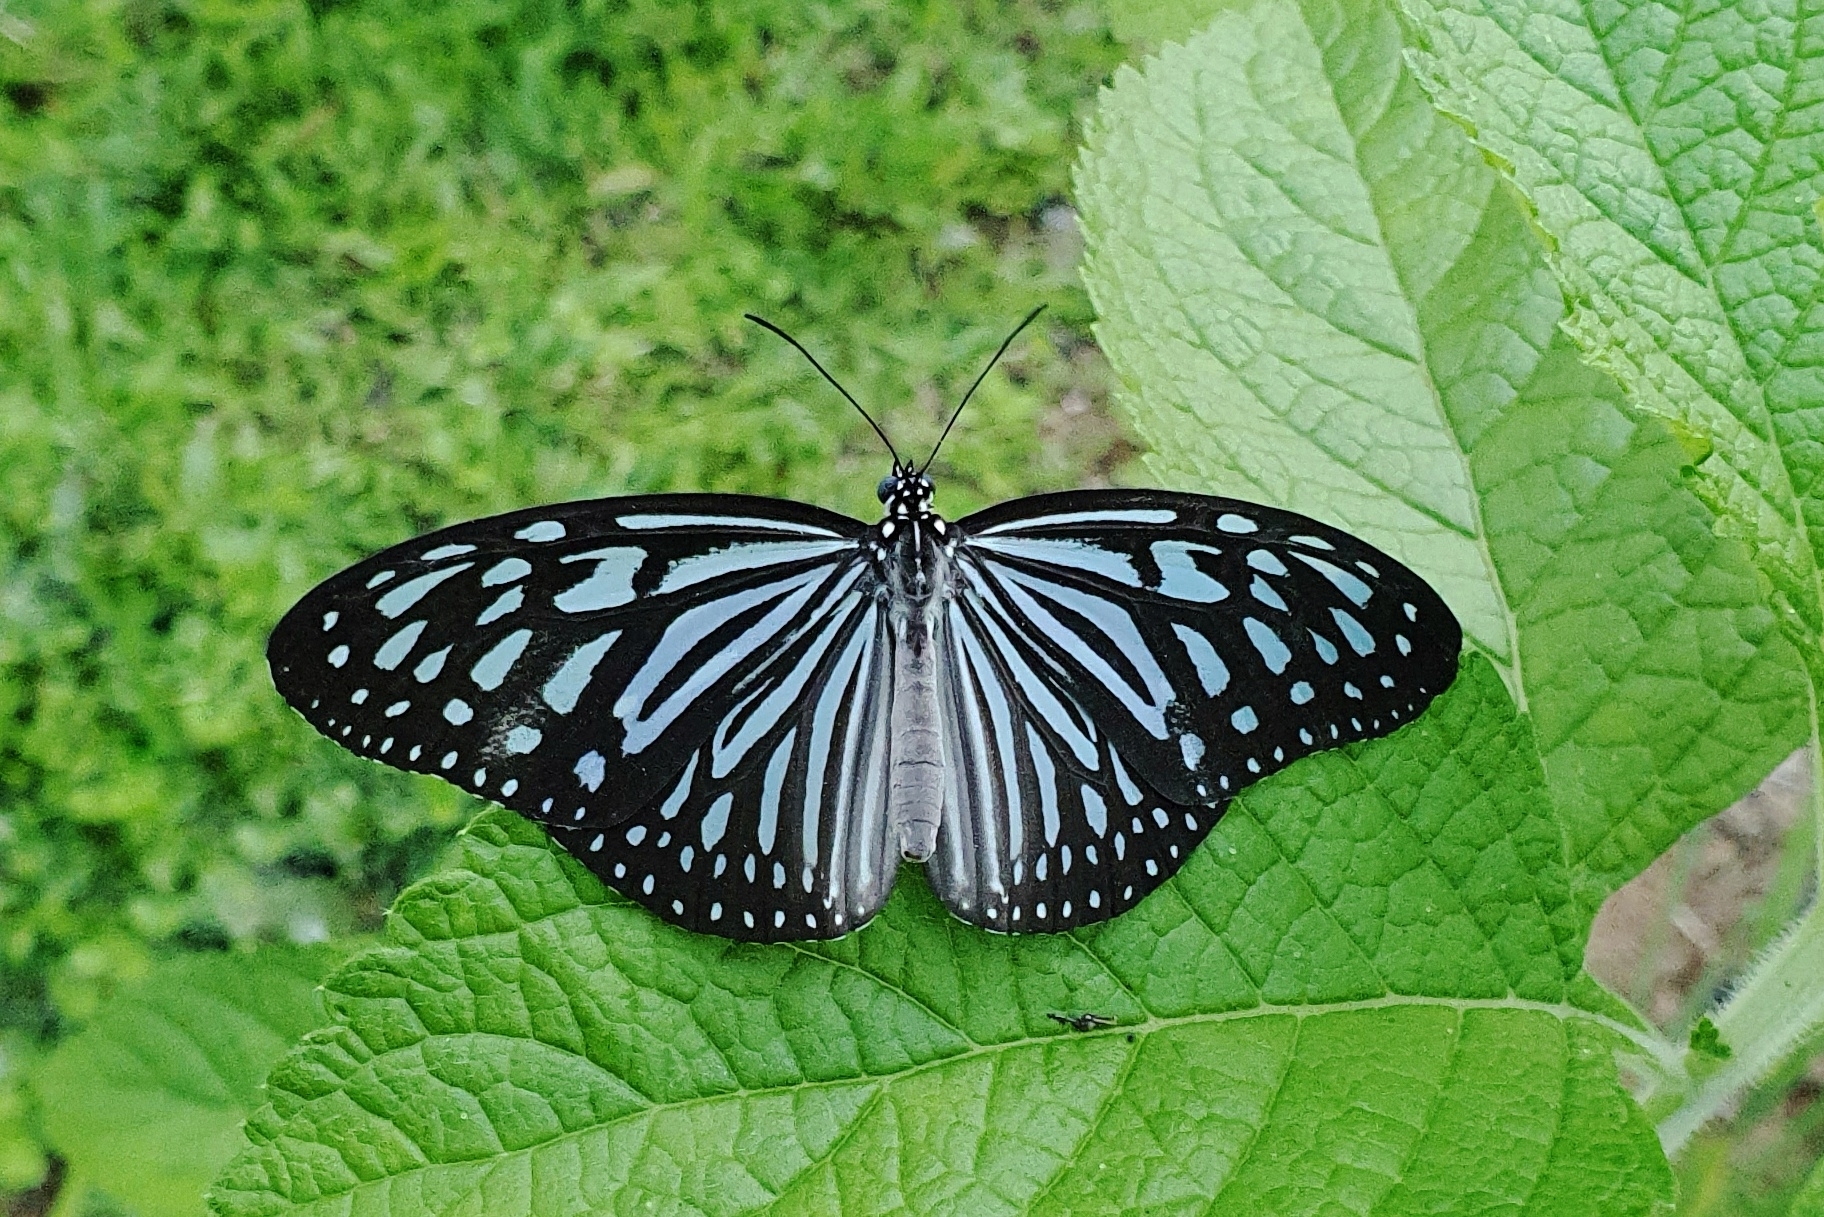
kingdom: Animalia
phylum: Arthropoda
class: Insecta
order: Lepidoptera
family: Nymphalidae
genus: Ideopsis
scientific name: Ideopsis vulgaris
